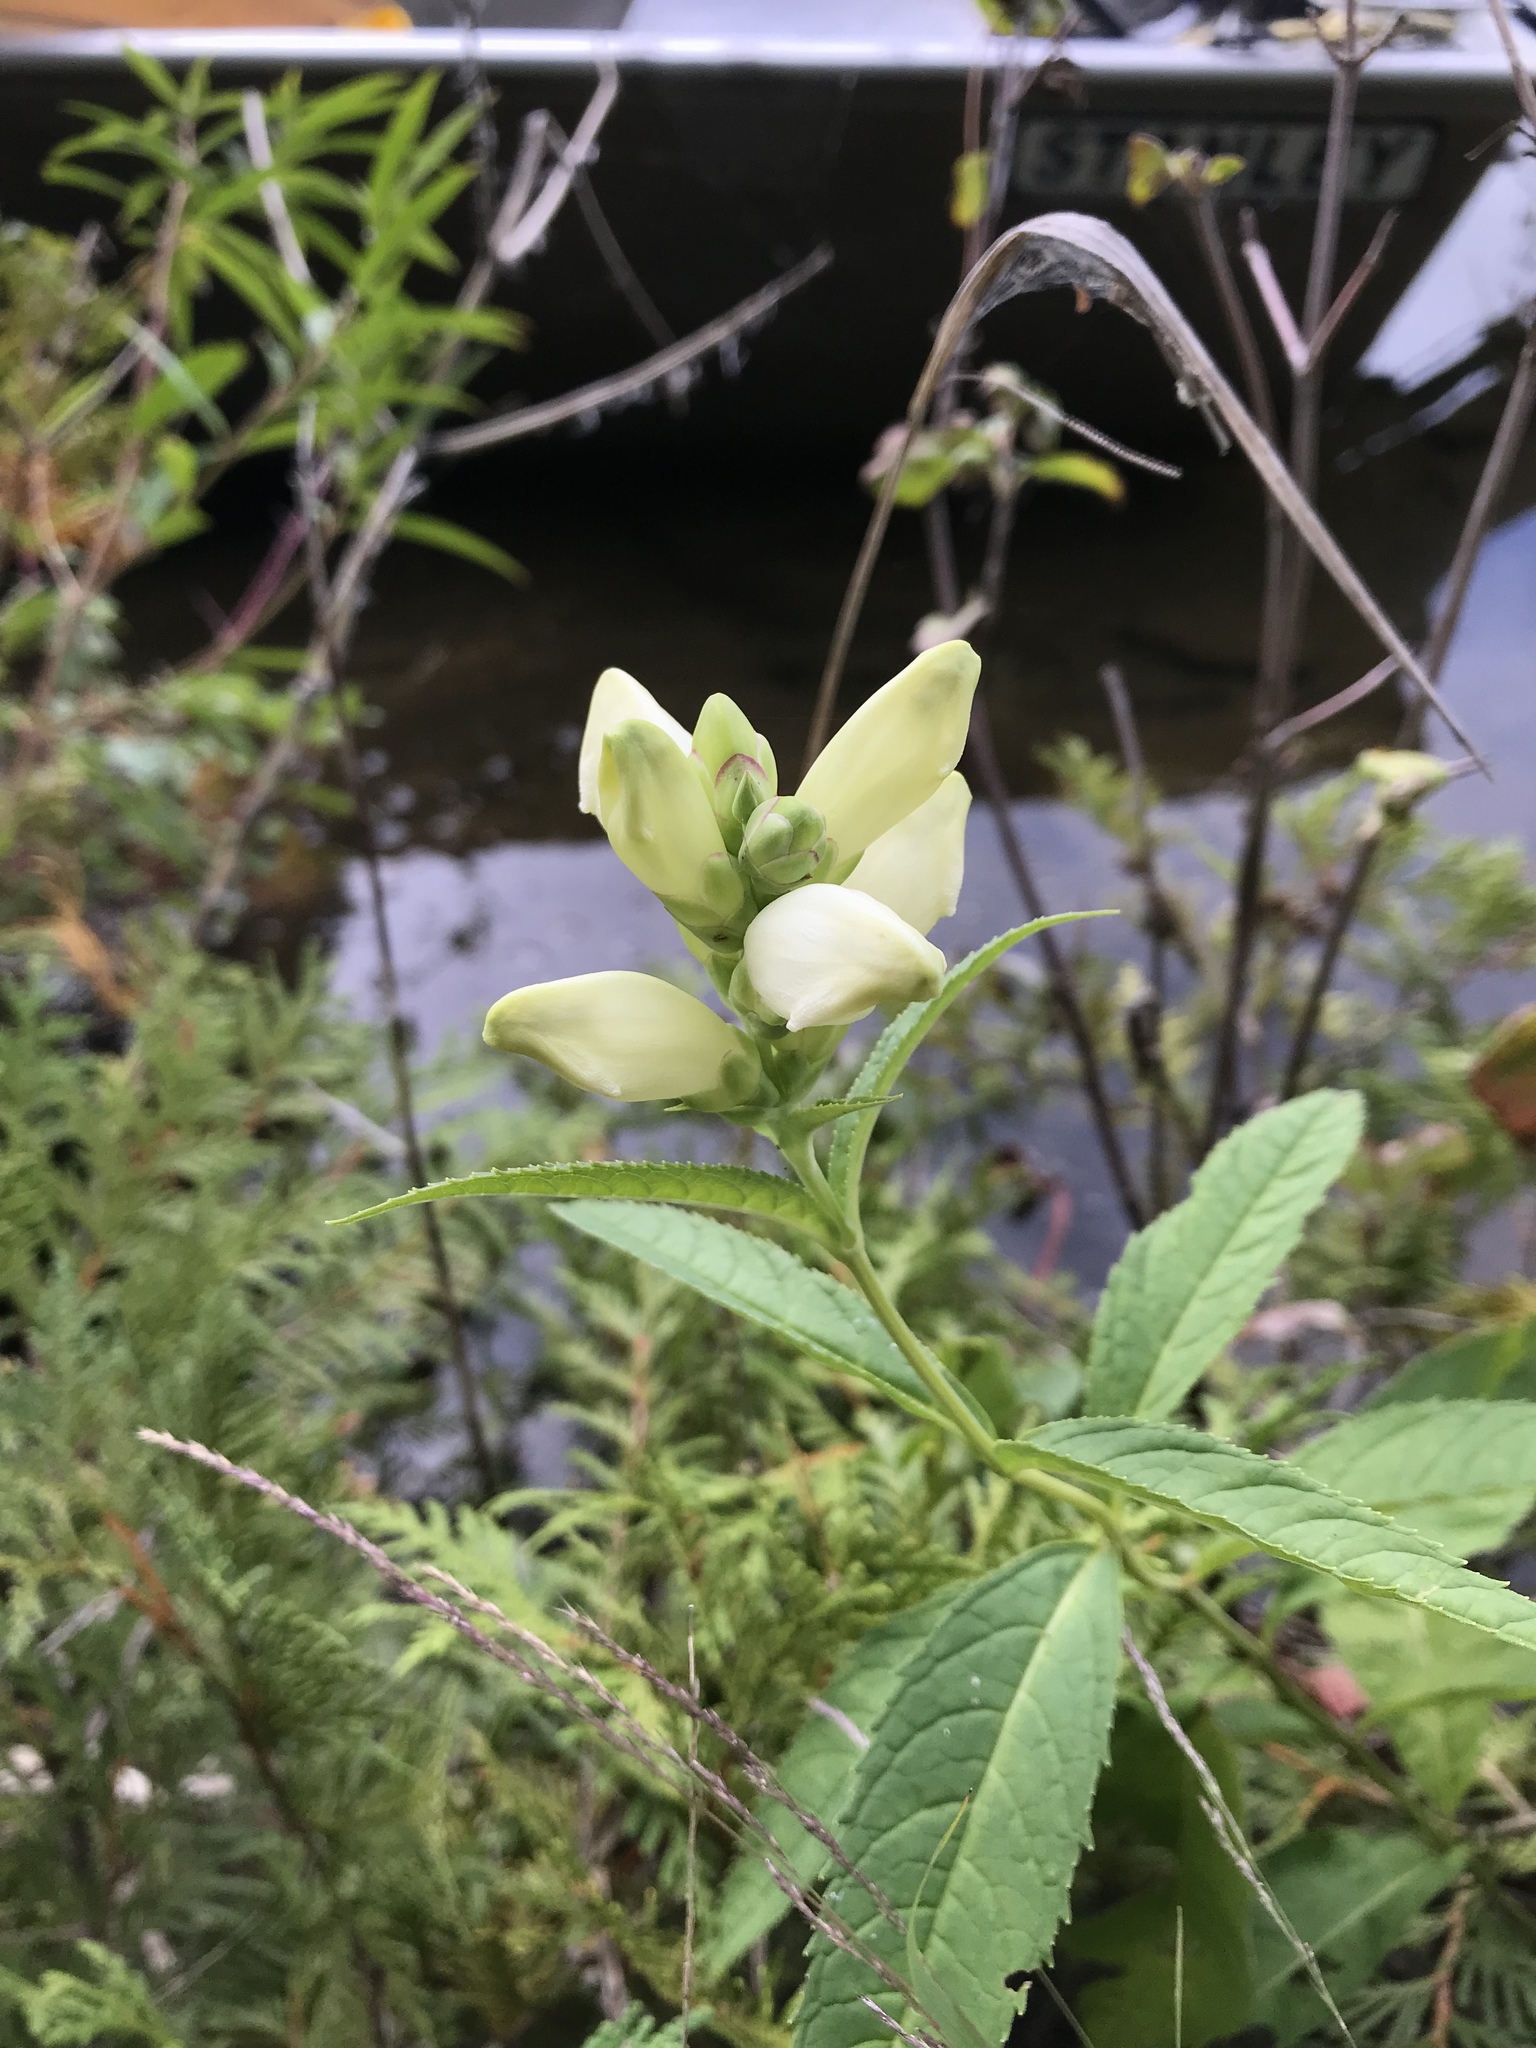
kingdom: Plantae
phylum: Tracheophyta
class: Magnoliopsida
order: Lamiales
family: Plantaginaceae
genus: Chelone
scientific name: Chelone glabra
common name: Snakehead
